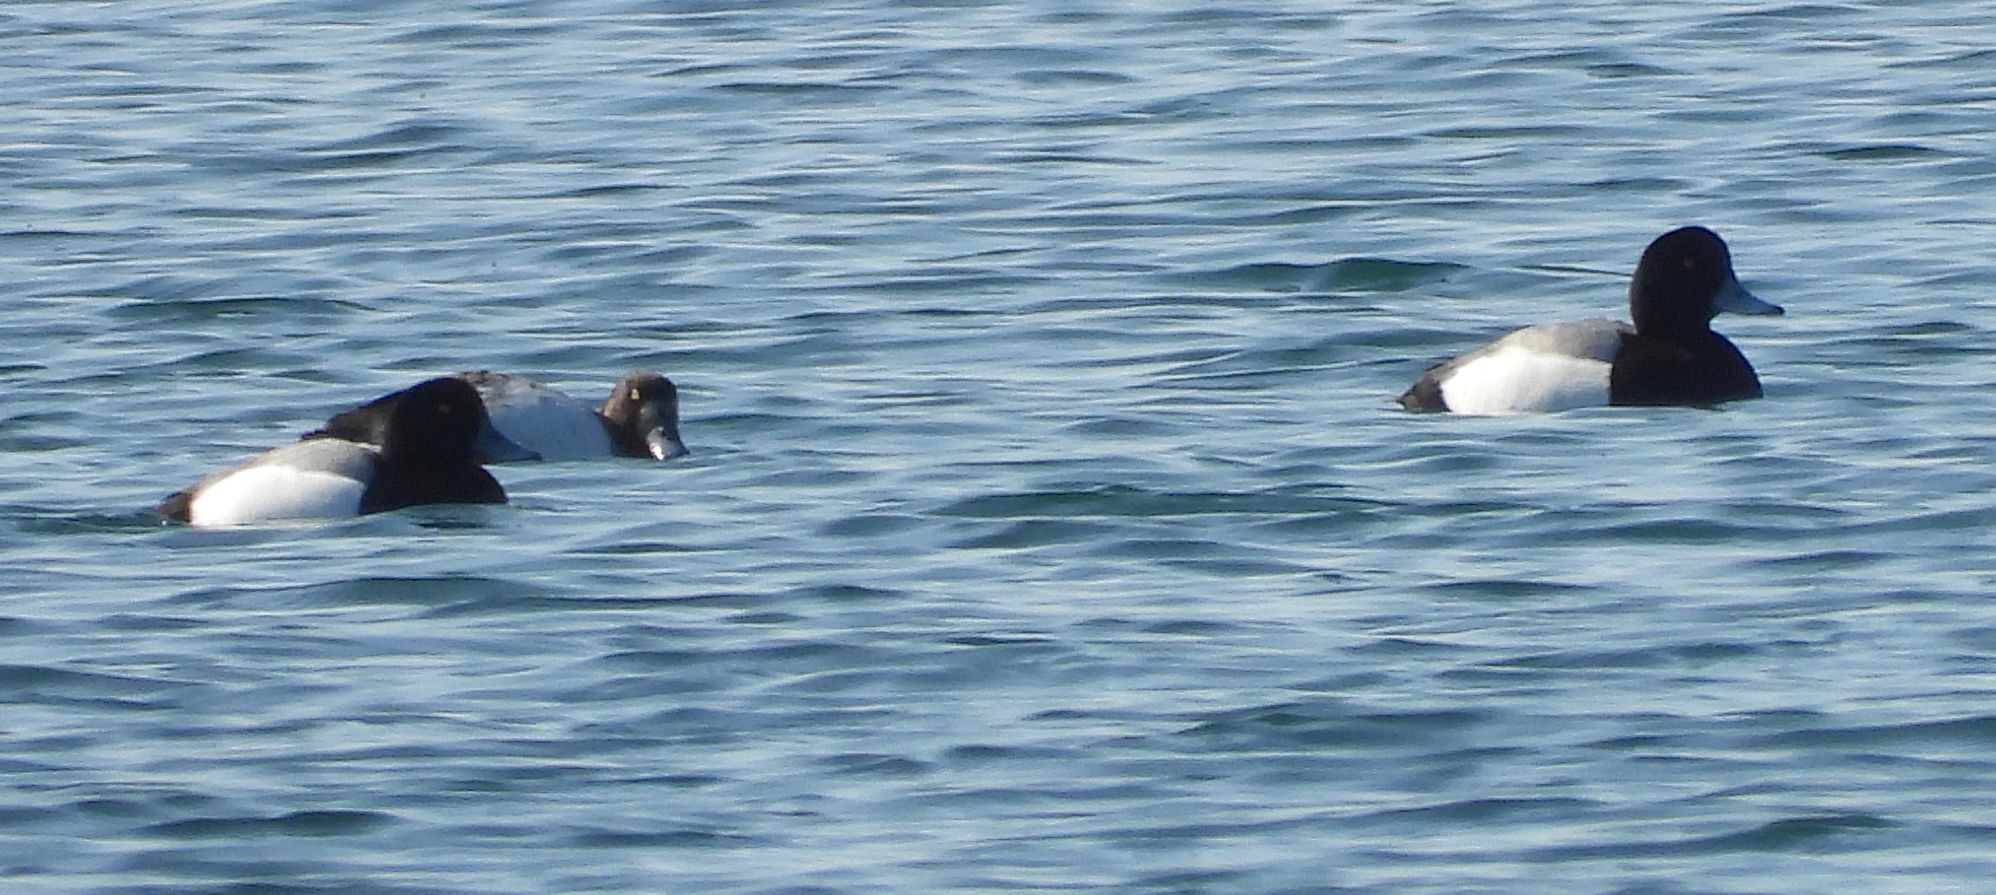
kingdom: Animalia
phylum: Chordata
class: Aves
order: Anseriformes
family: Anatidae
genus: Aythya
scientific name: Aythya marila
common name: Greater scaup
